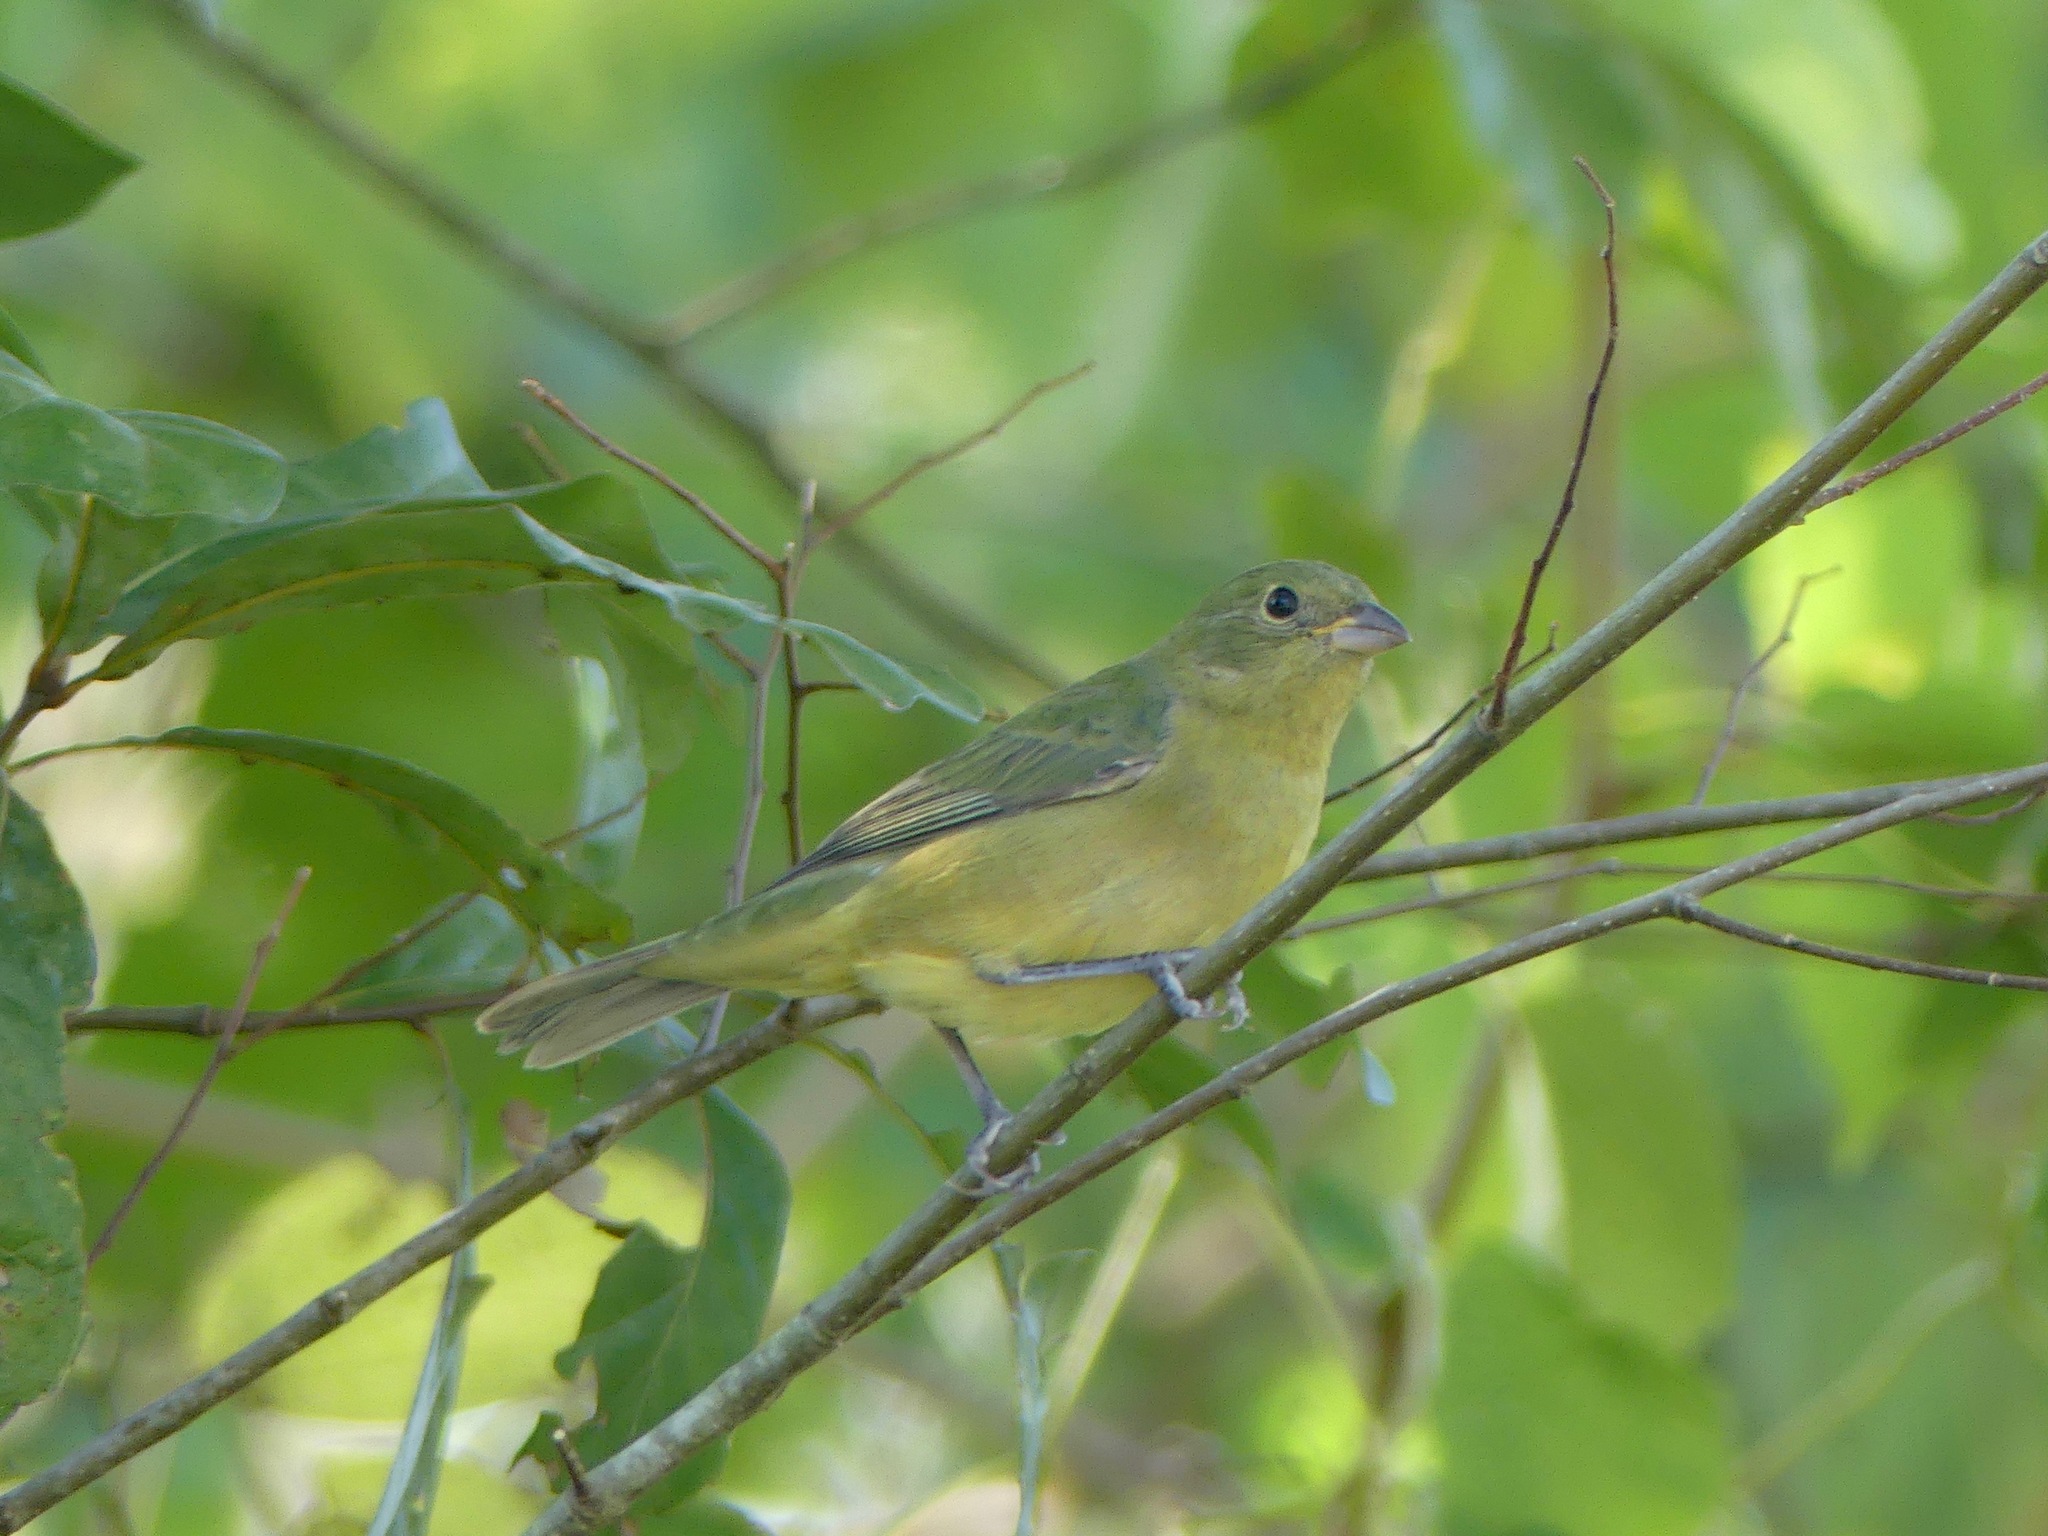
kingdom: Animalia
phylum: Chordata
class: Aves
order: Passeriformes
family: Cardinalidae
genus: Passerina
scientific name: Passerina ciris
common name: Painted bunting
